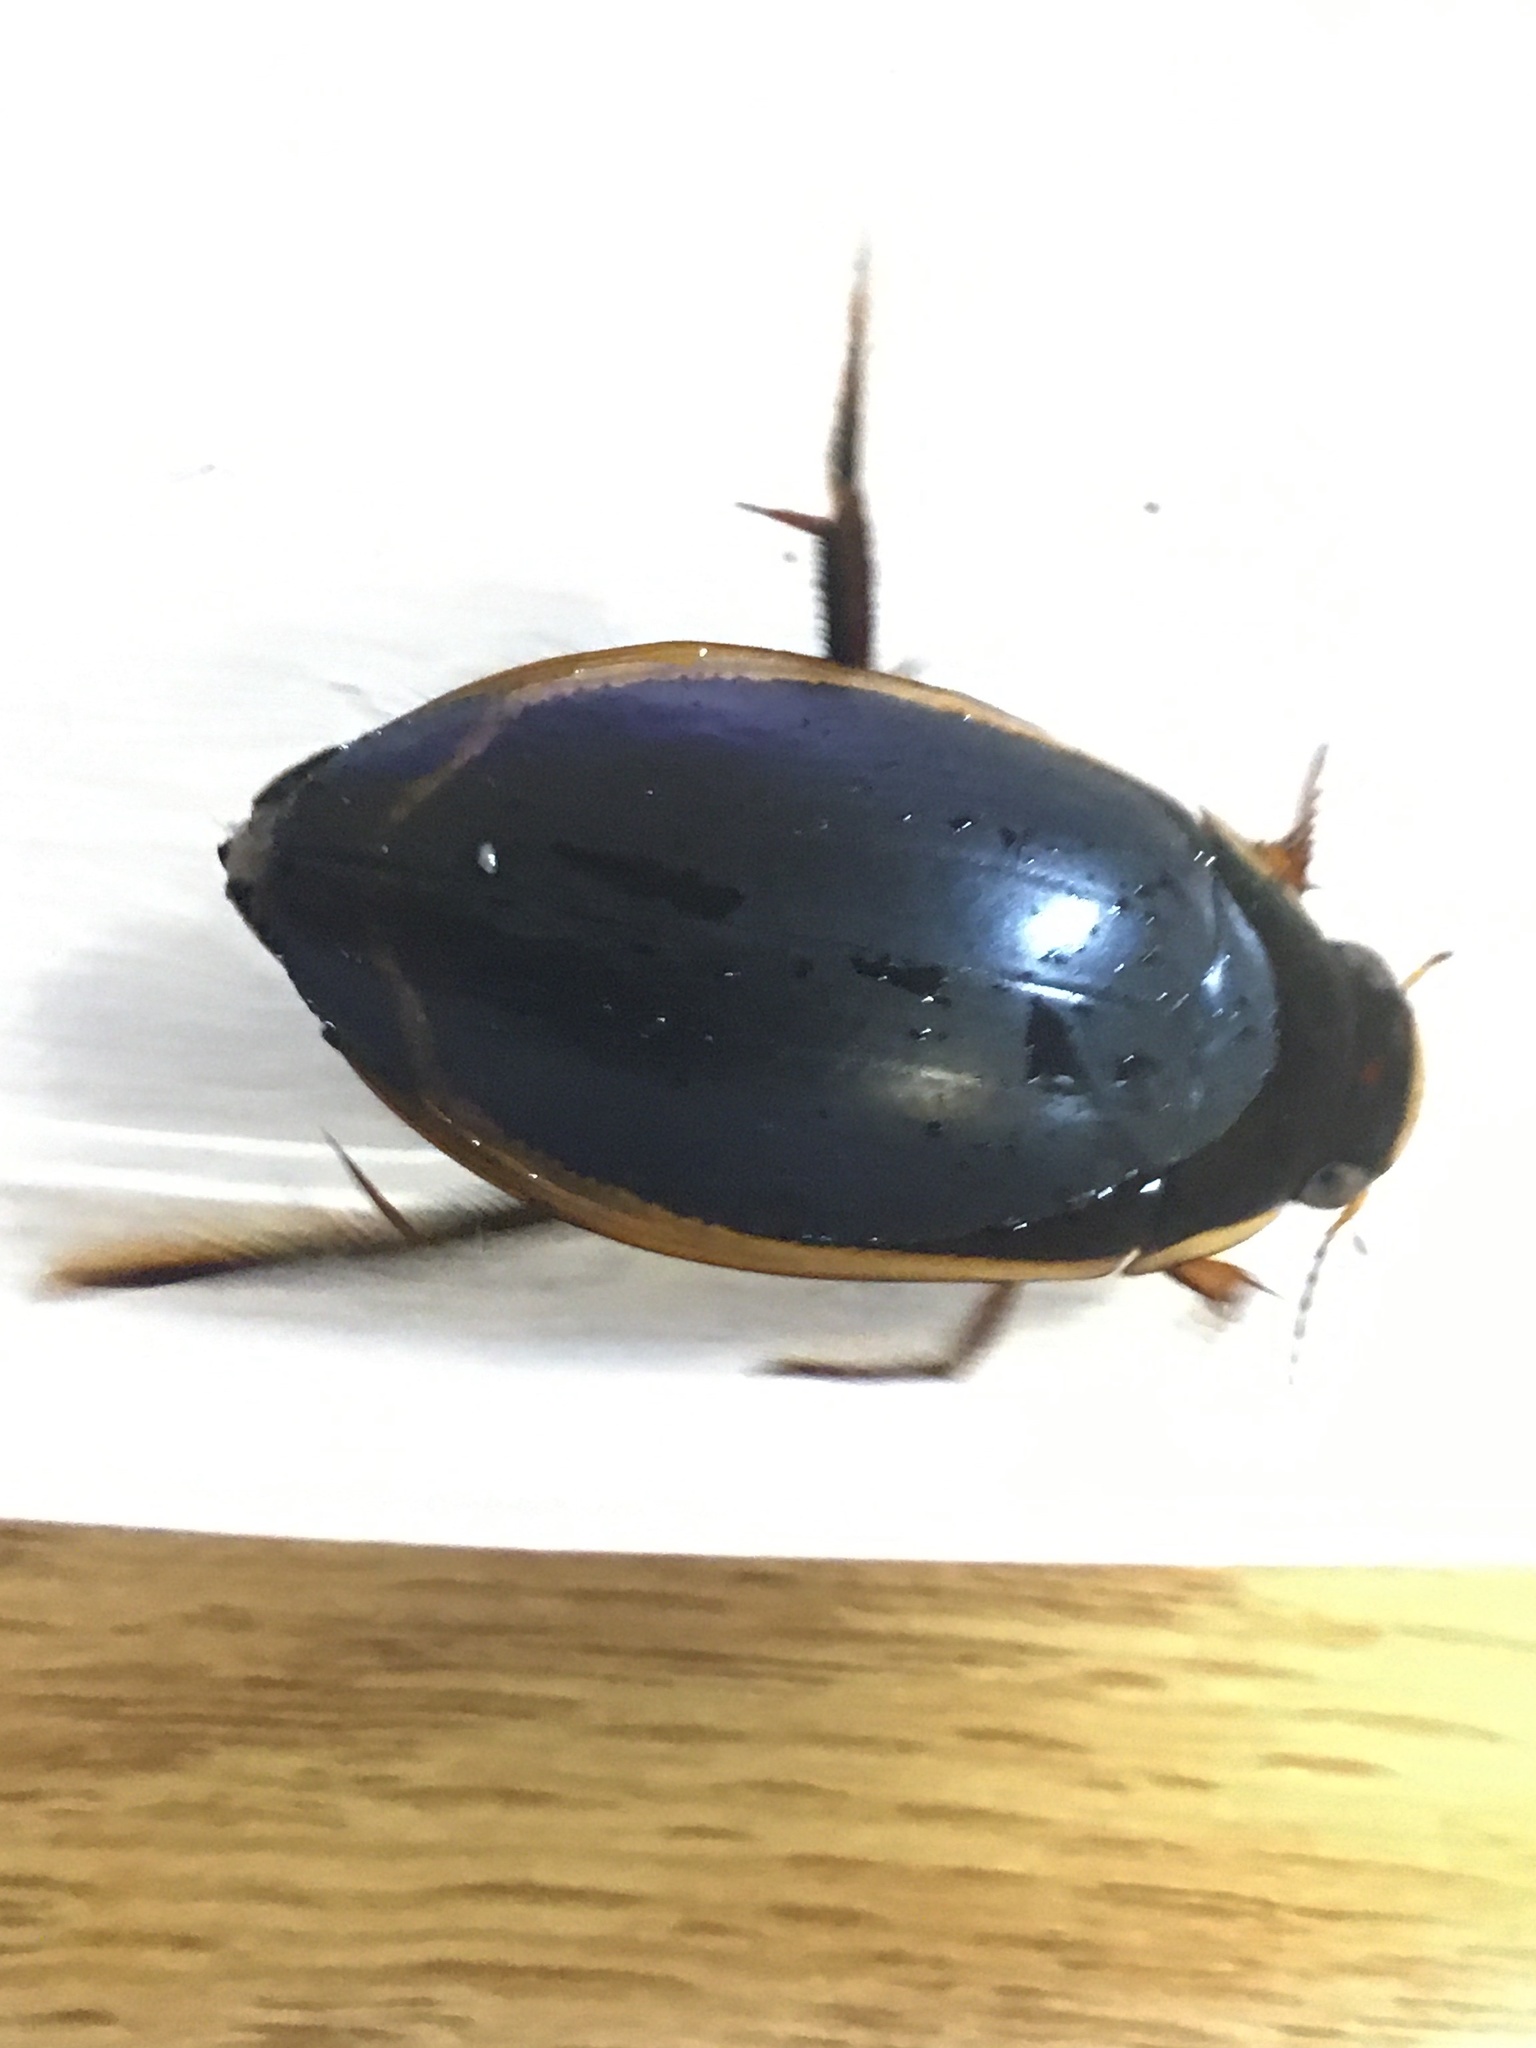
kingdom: Animalia
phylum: Arthropoda
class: Insecta
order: Coleoptera
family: Dytiscidae
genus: Dytiscus
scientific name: Dytiscus verticalis
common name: Vertical diving beetle
